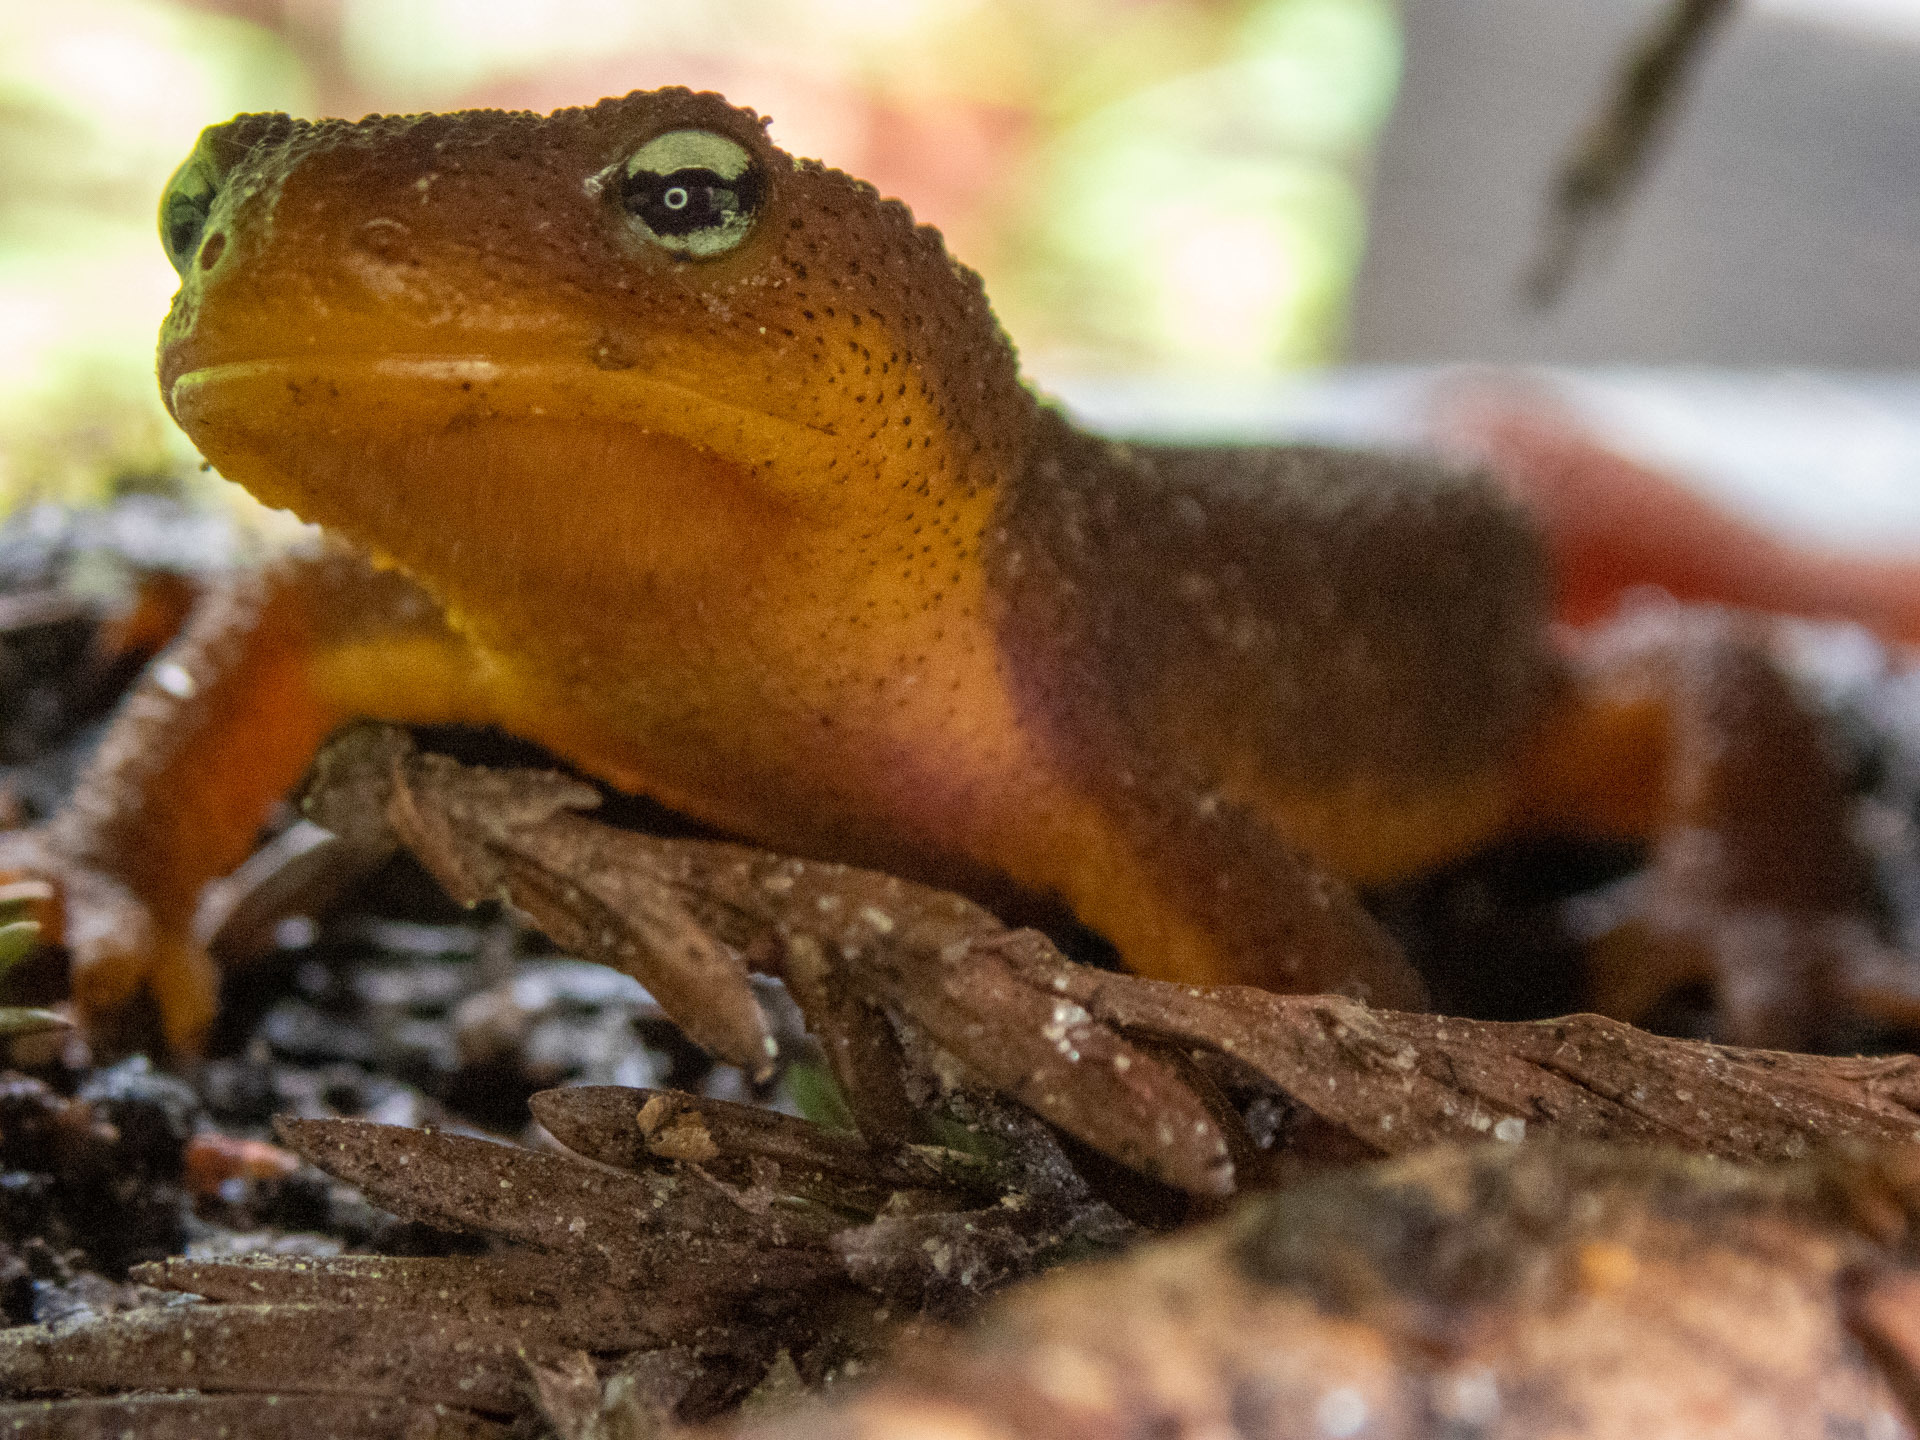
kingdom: Animalia
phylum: Chordata
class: Amphibia
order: Caudata
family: Salamandridae
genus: Taricha
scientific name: Taricha granulosa
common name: Roughskin newt
